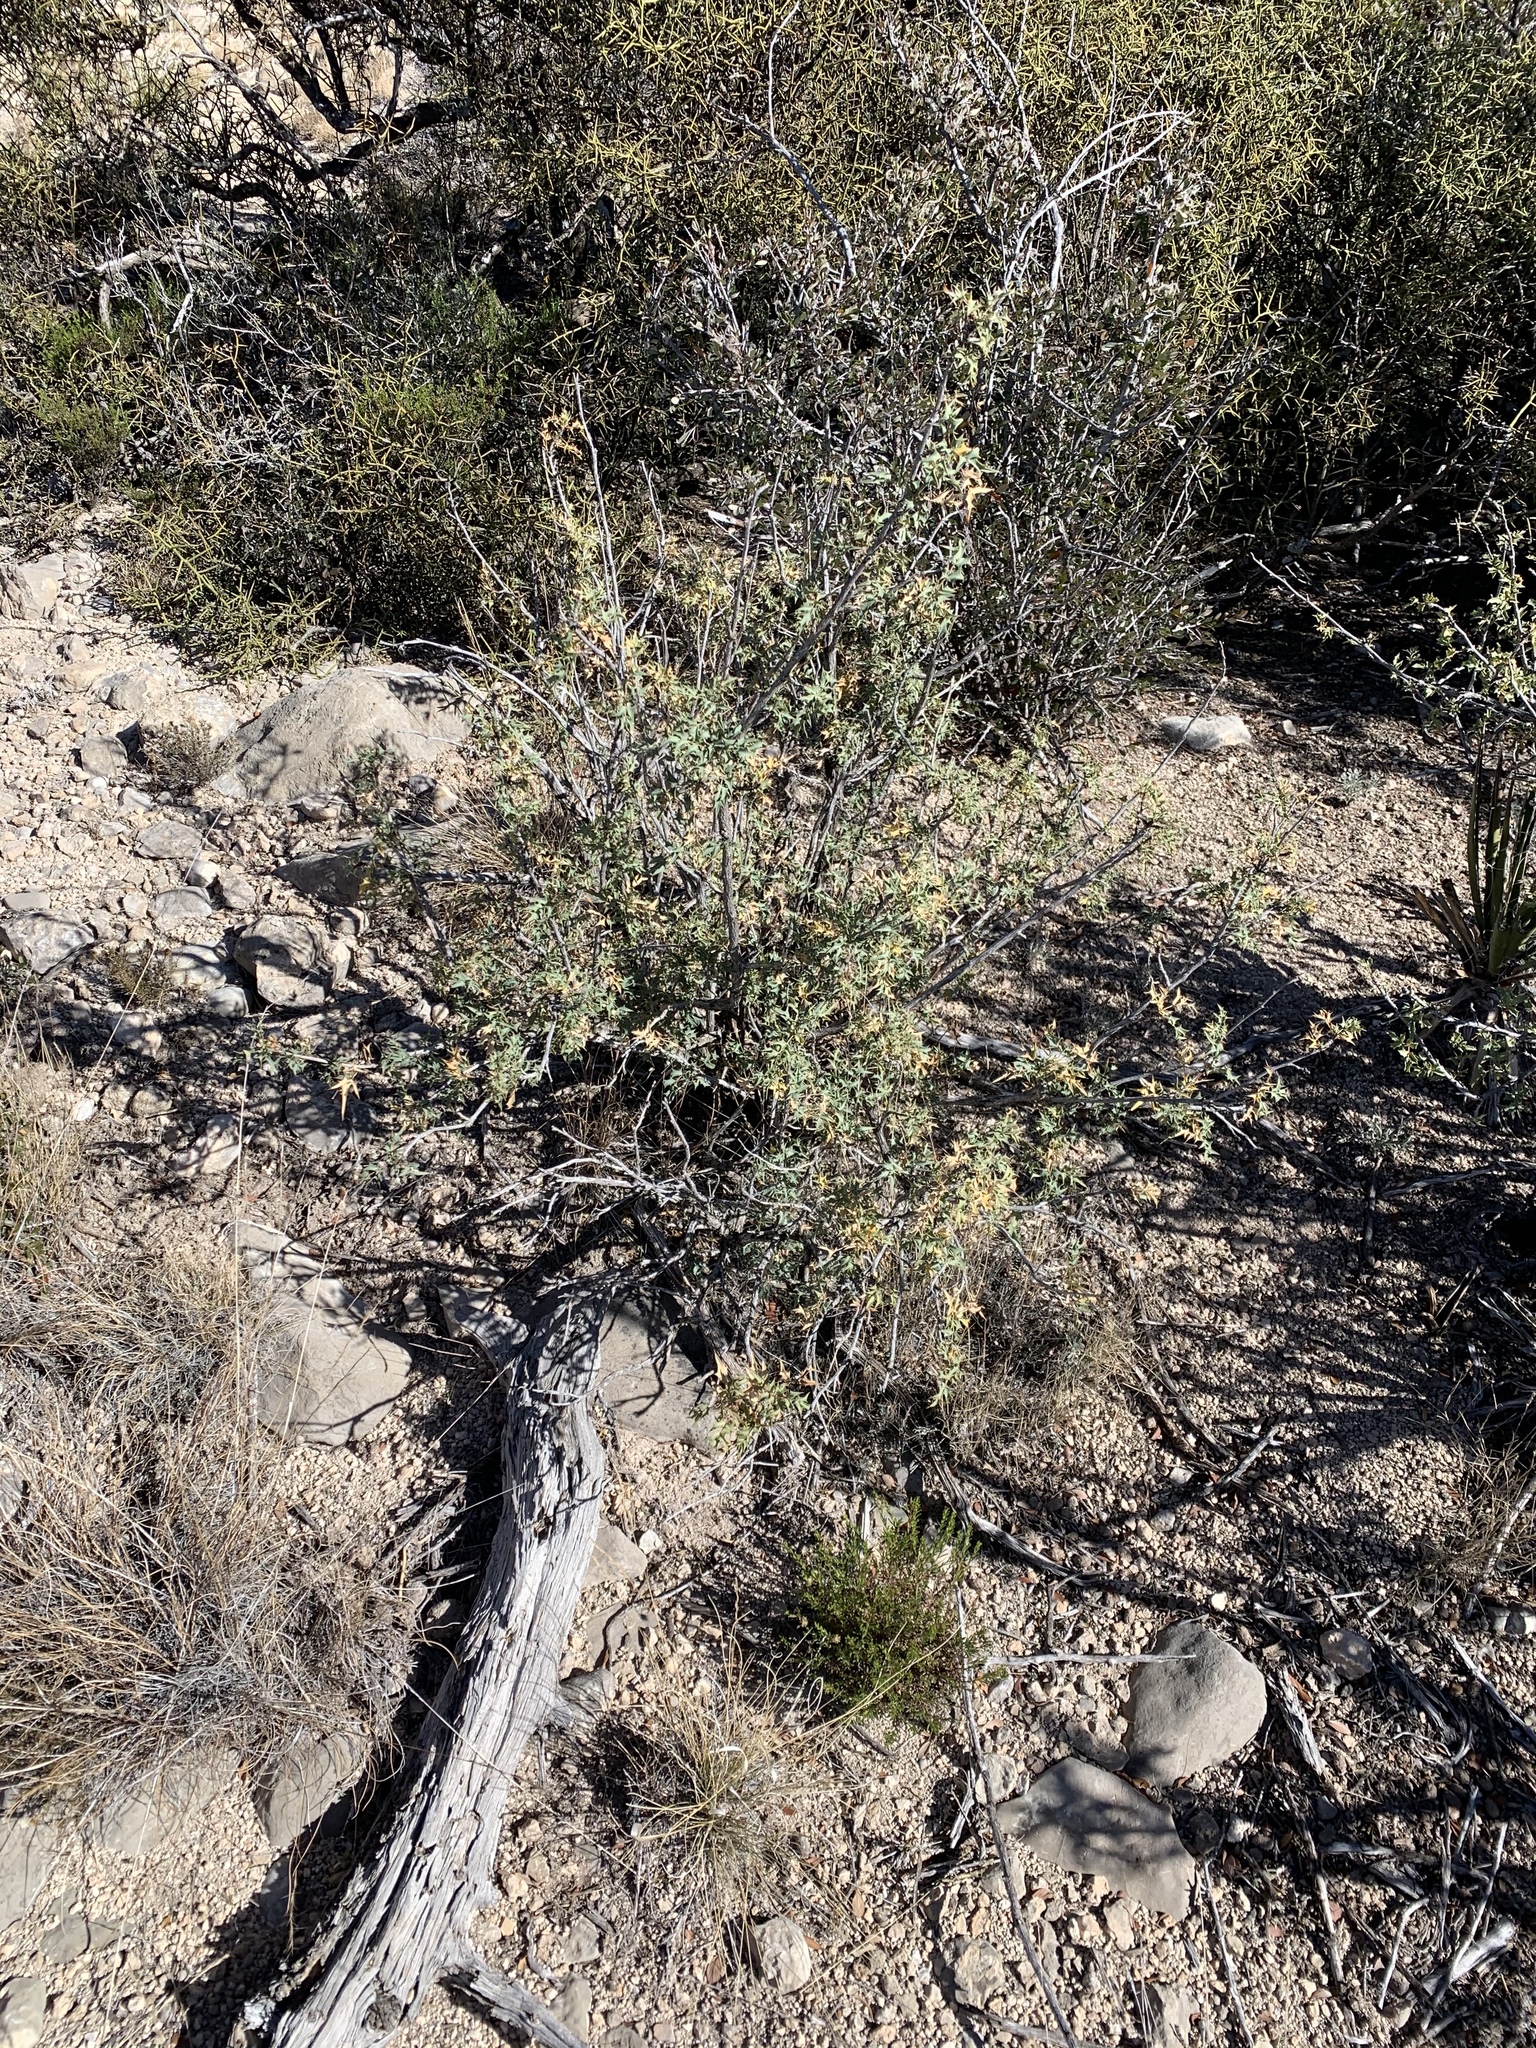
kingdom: Plantae
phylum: Tracheophyta
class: Magnoliopsida
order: Ranunculales
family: Berberidaceae
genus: Alloberberis
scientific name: Alloberberis haematocarpa
